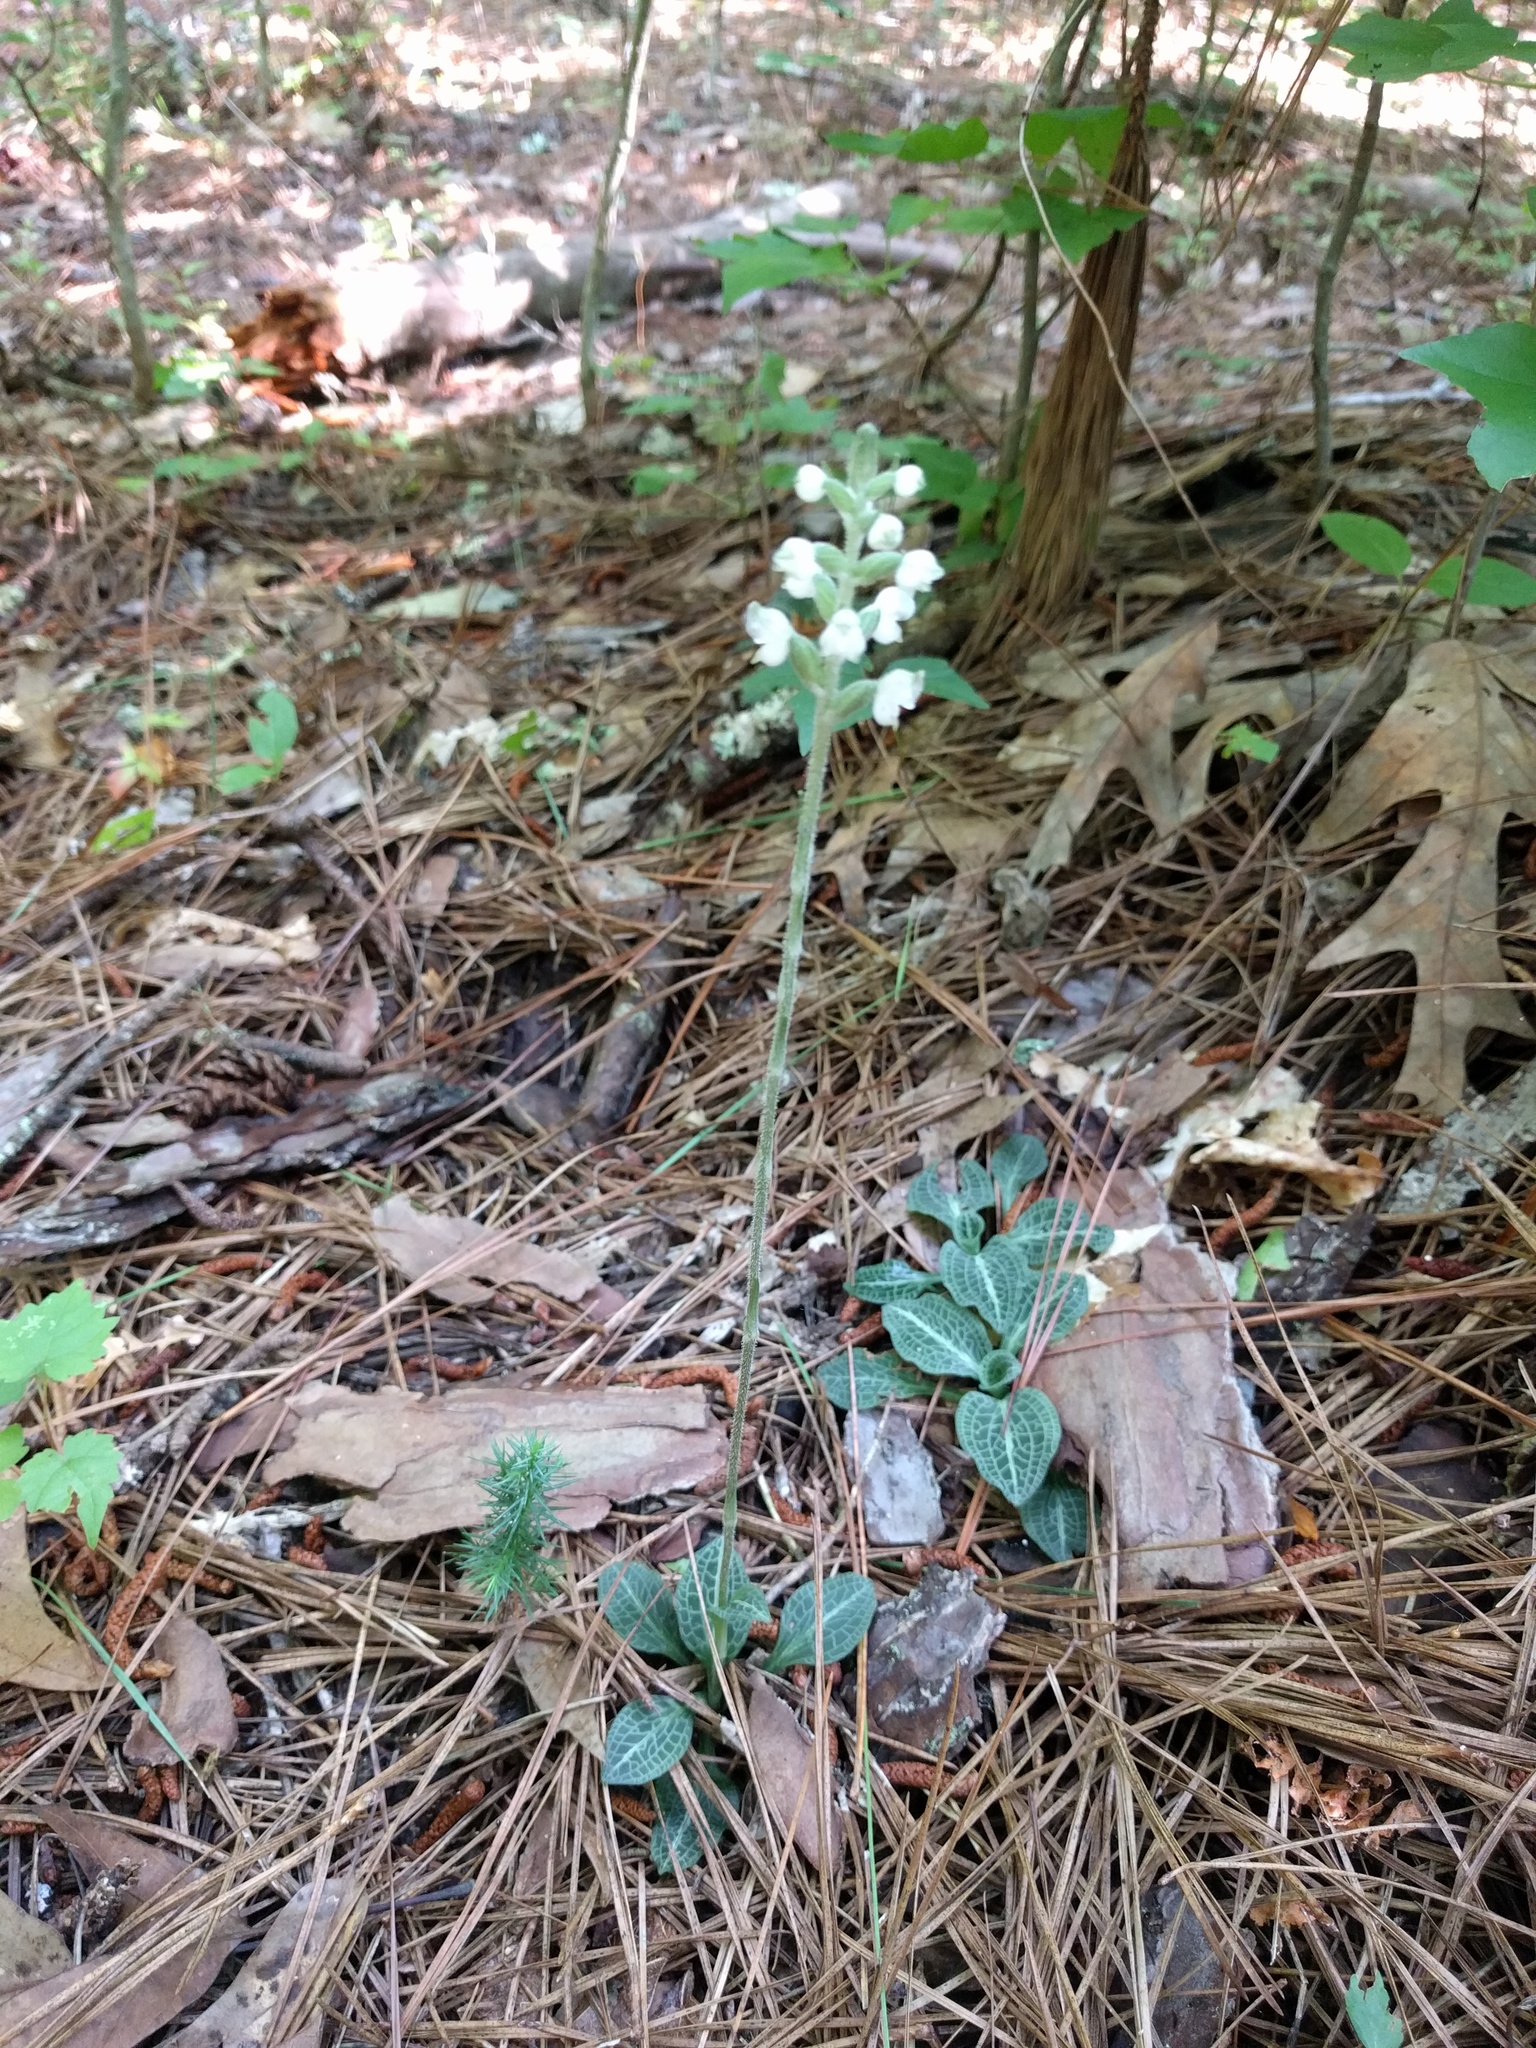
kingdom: Plantae
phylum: Tracheophyta
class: Liliopsida
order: Asparagales
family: Orchidaceae
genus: Goodyera
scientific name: Goodyera pubescens
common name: Downy rattlesnake-plantain
